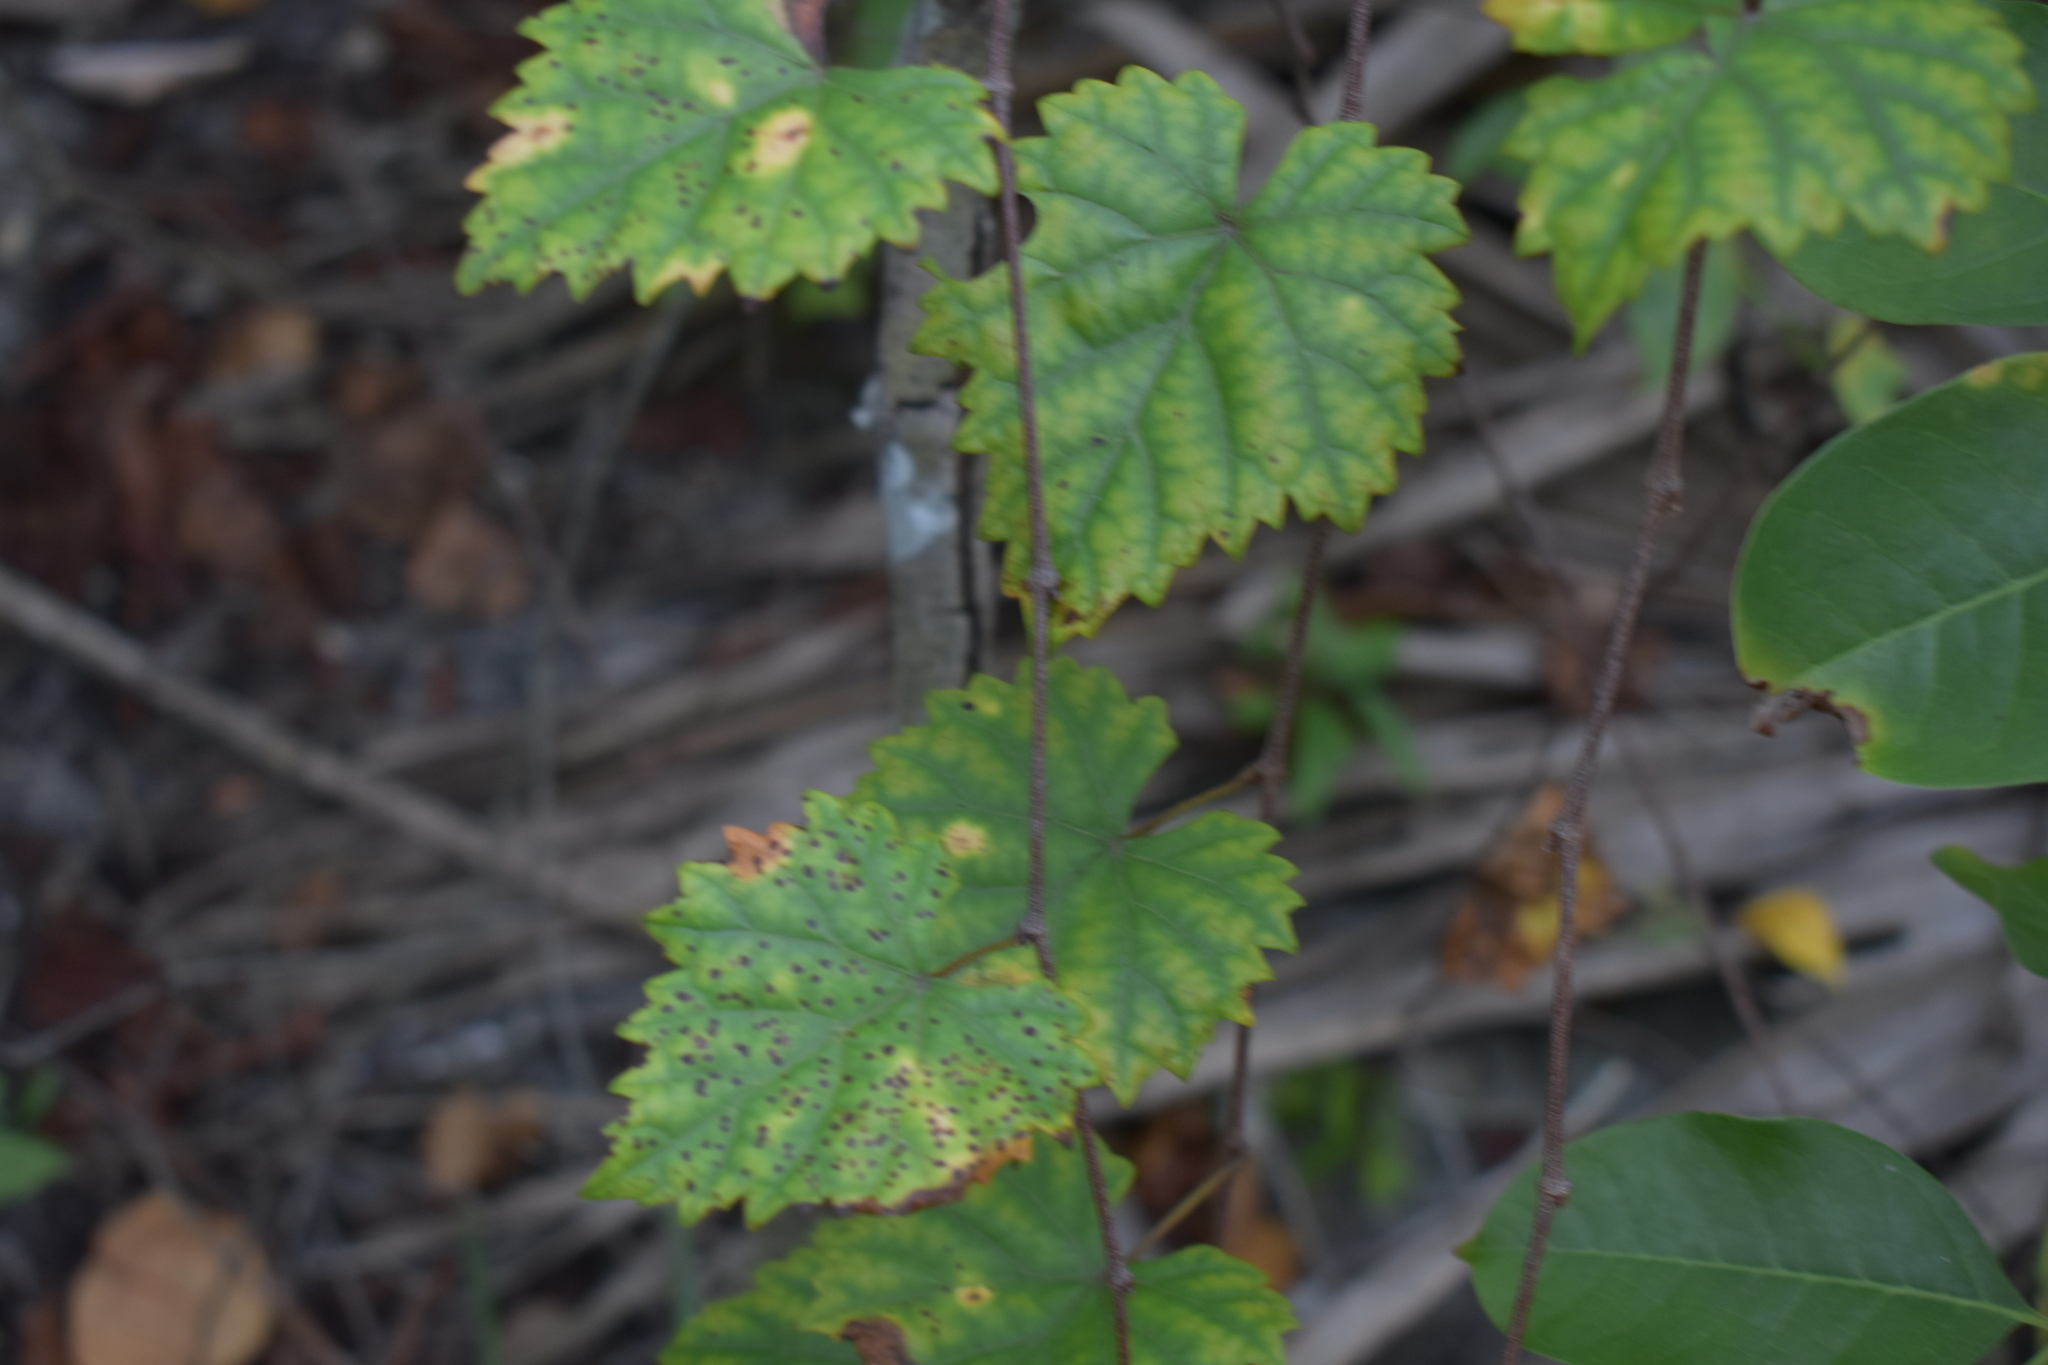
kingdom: Plantae
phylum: Tracheophyta
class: Magnoliopsida
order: Vitales
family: Vitaceae
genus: Vitis
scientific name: Vitis rotundifolia
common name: Muscadine grape
